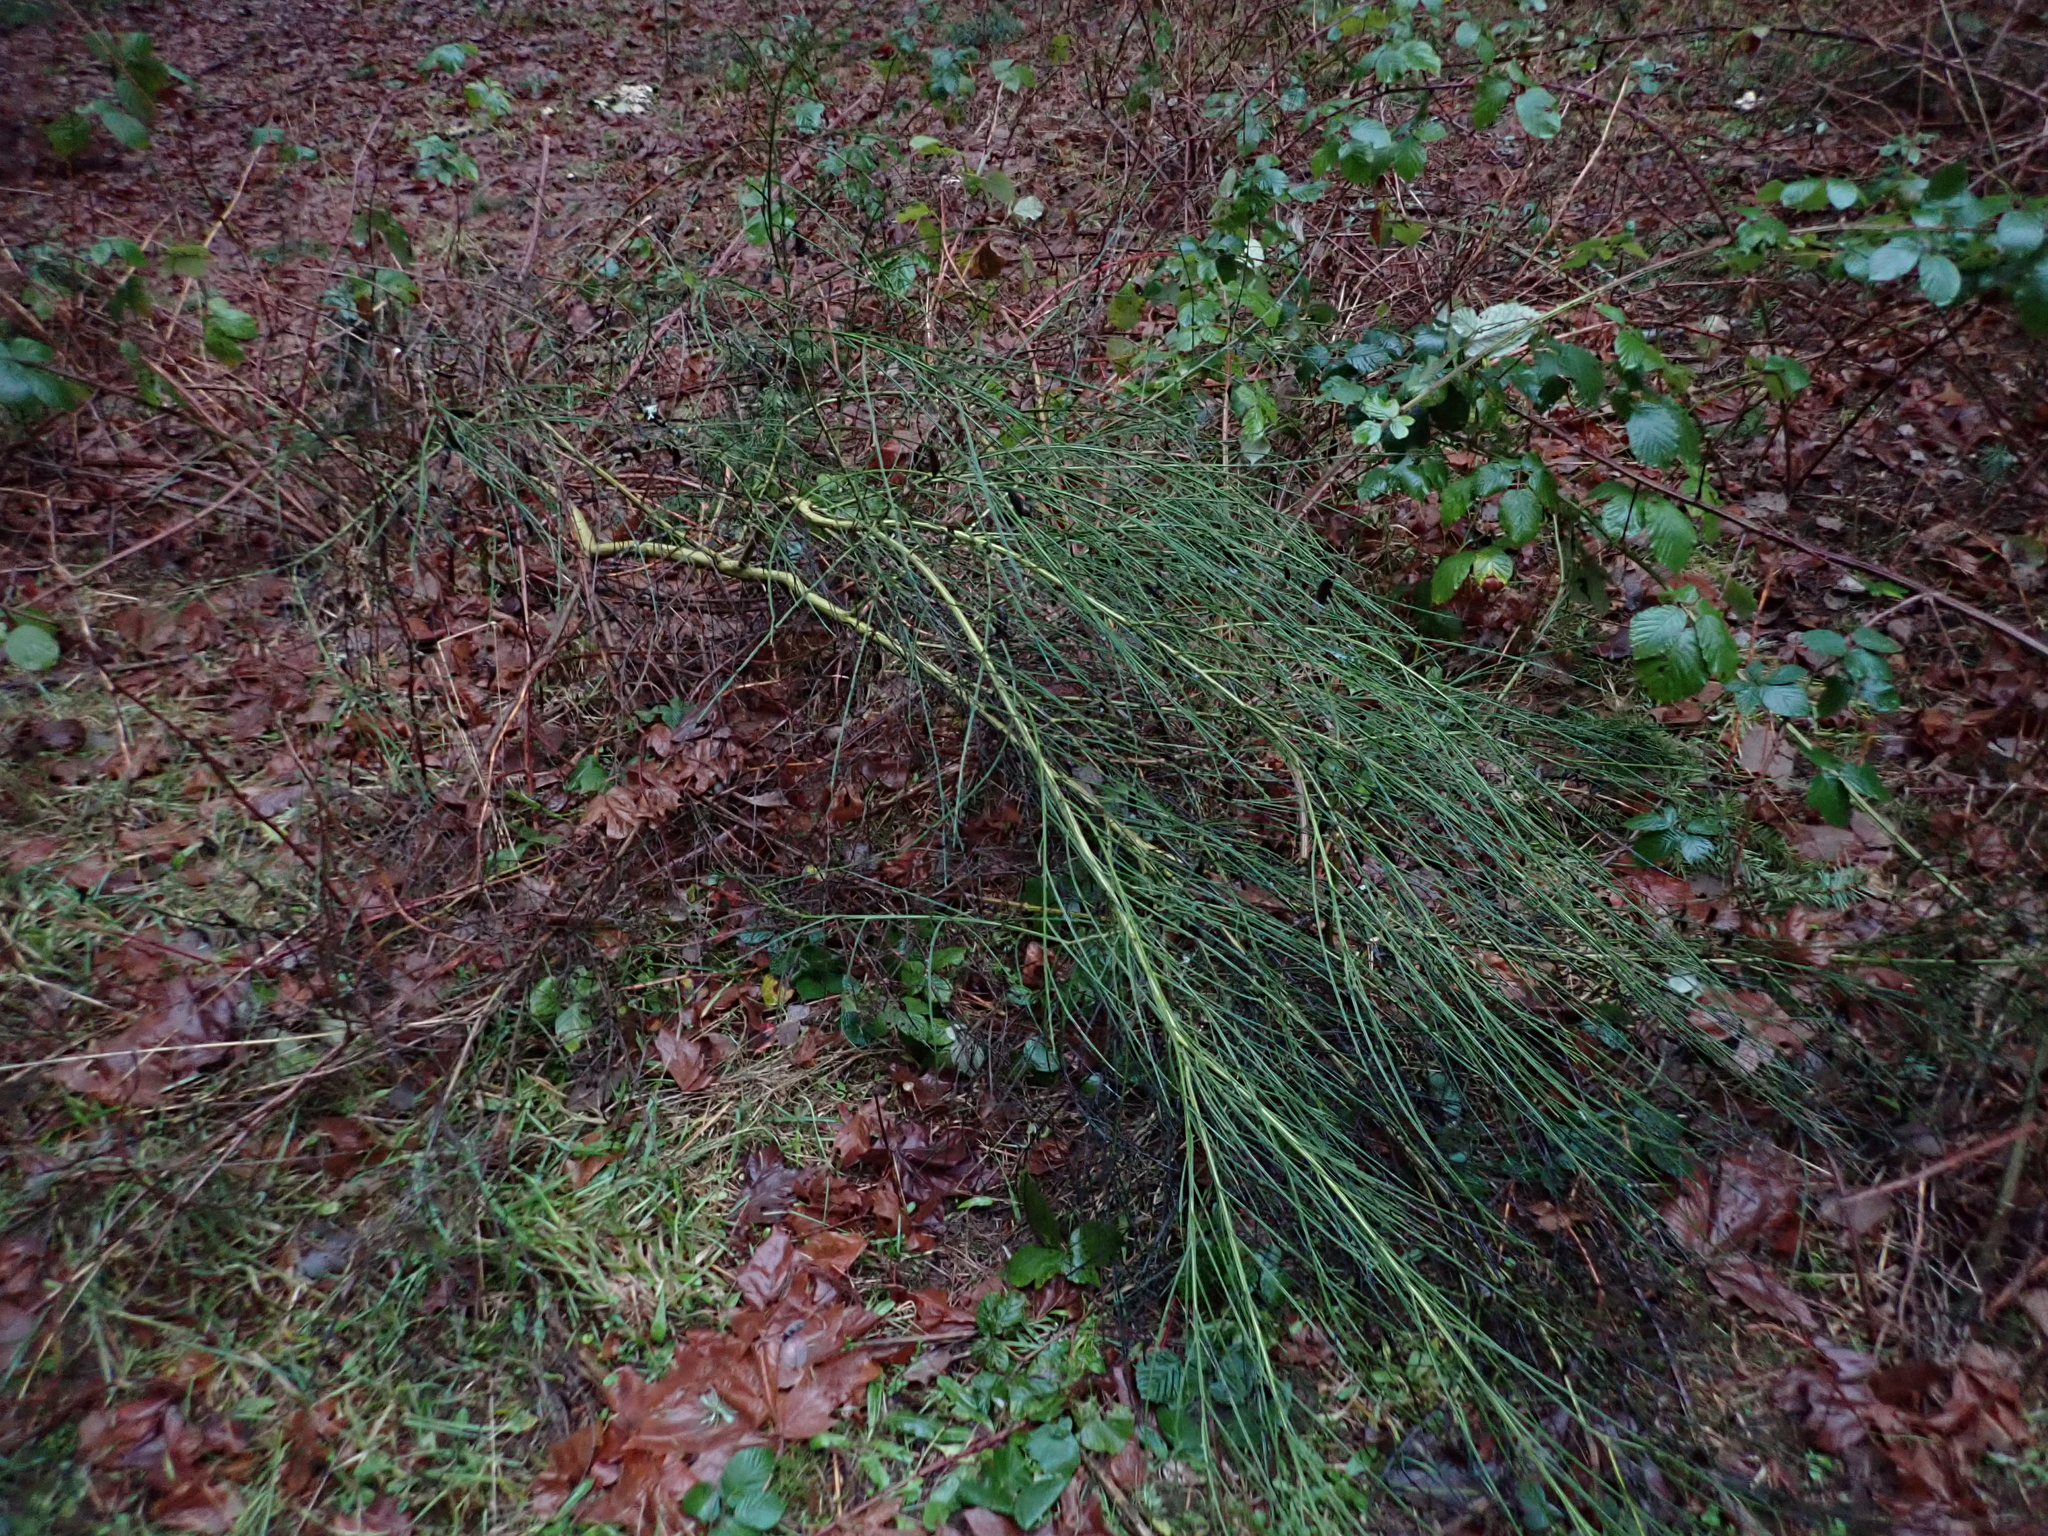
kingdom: Plantae
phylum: Tracheophyta
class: Magnoliopsida
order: Fabales
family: Fabaceae
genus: Cytisus
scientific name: Cytisus scoparius
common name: Scotch broom
